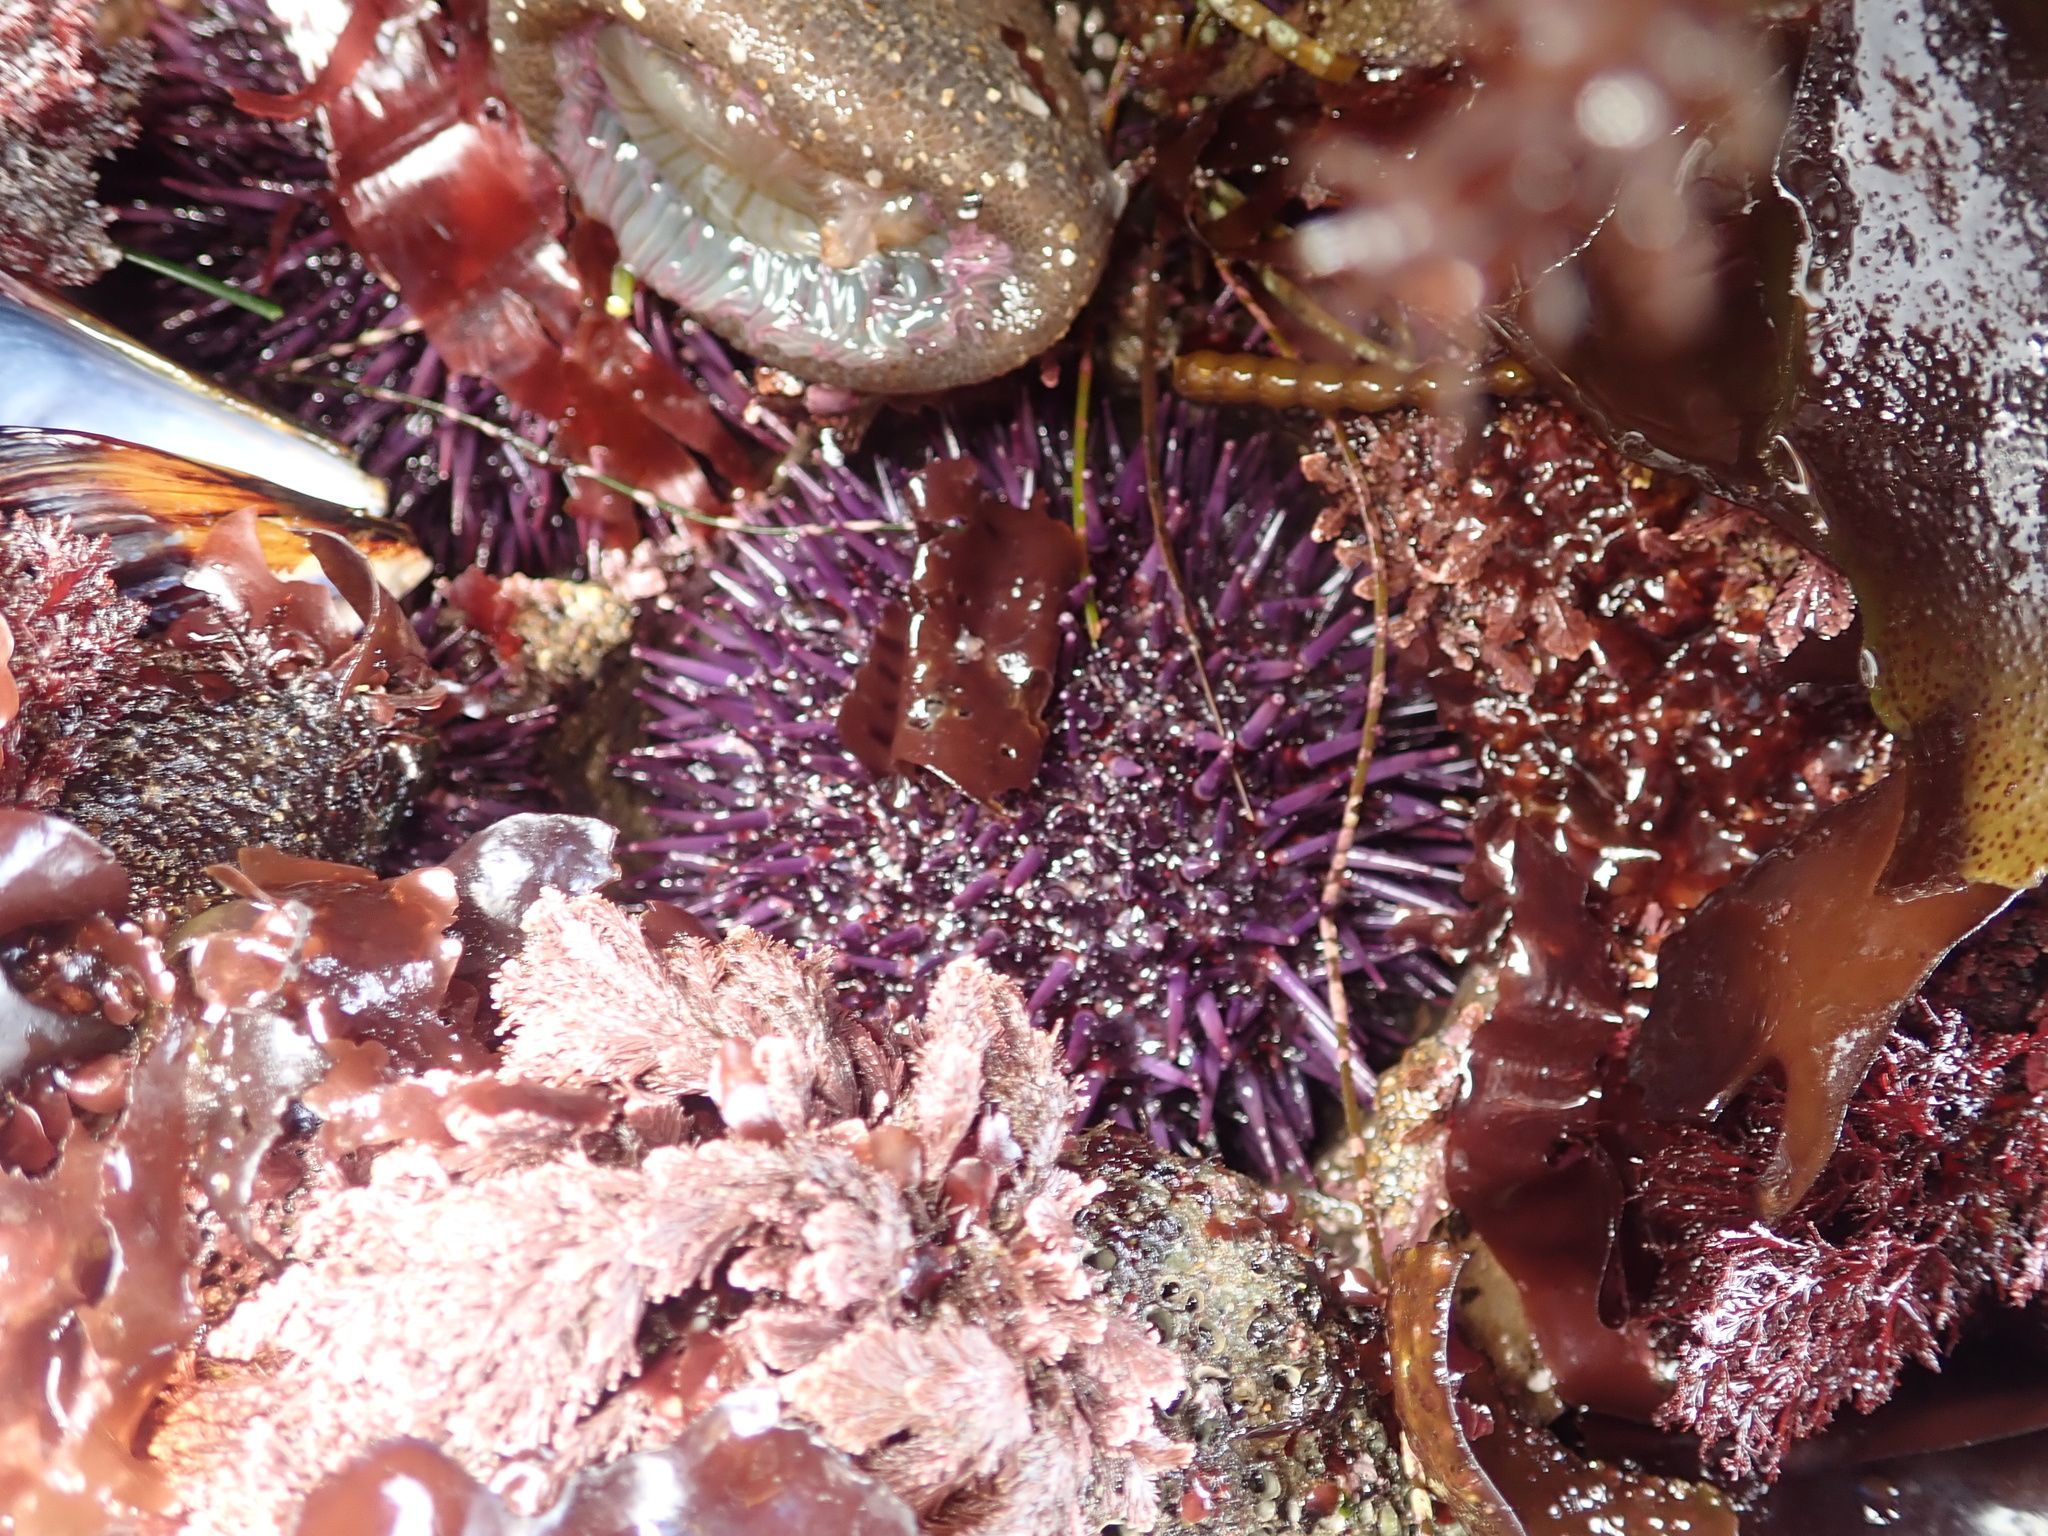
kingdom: Animalia
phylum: Echinodermata
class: Echinoidea
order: Camarodonta
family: Strongylocentrotidae
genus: Strongylocentrotus
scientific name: Strongylocentrotus purpuratus
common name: Purple sea urchin
